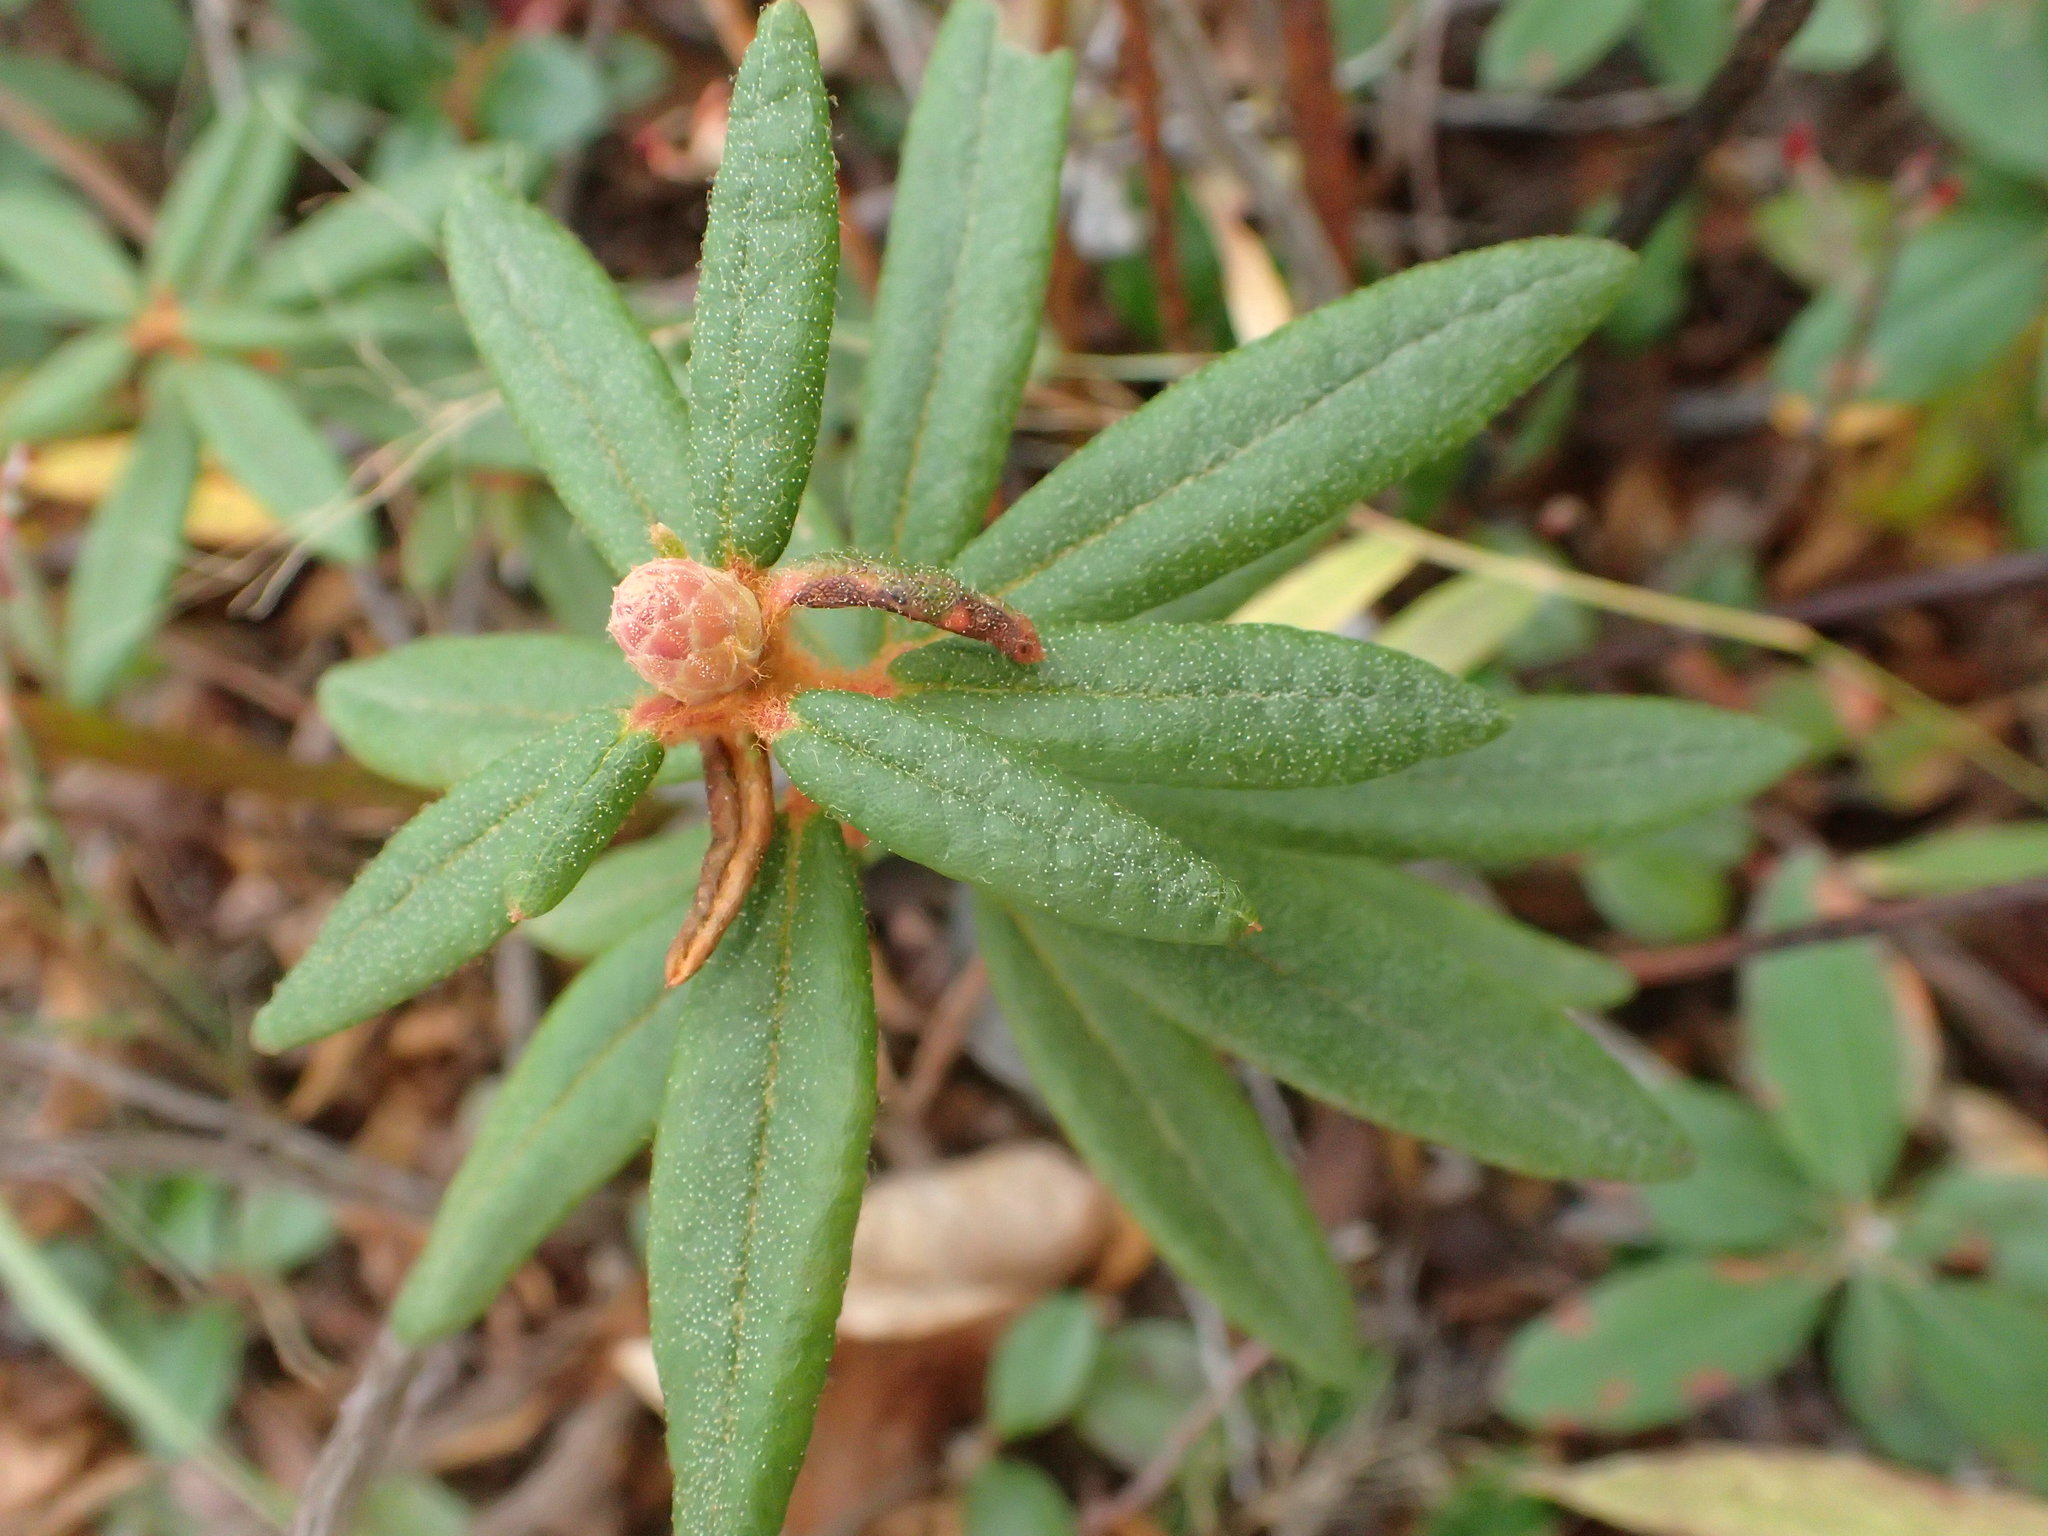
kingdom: Plantae
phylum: Tracheophyta
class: Magnoliopsida
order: Ericales
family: Ericaceae
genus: Rhododendron
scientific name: Rhododendron groenlandicum
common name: Bog labrador tea
